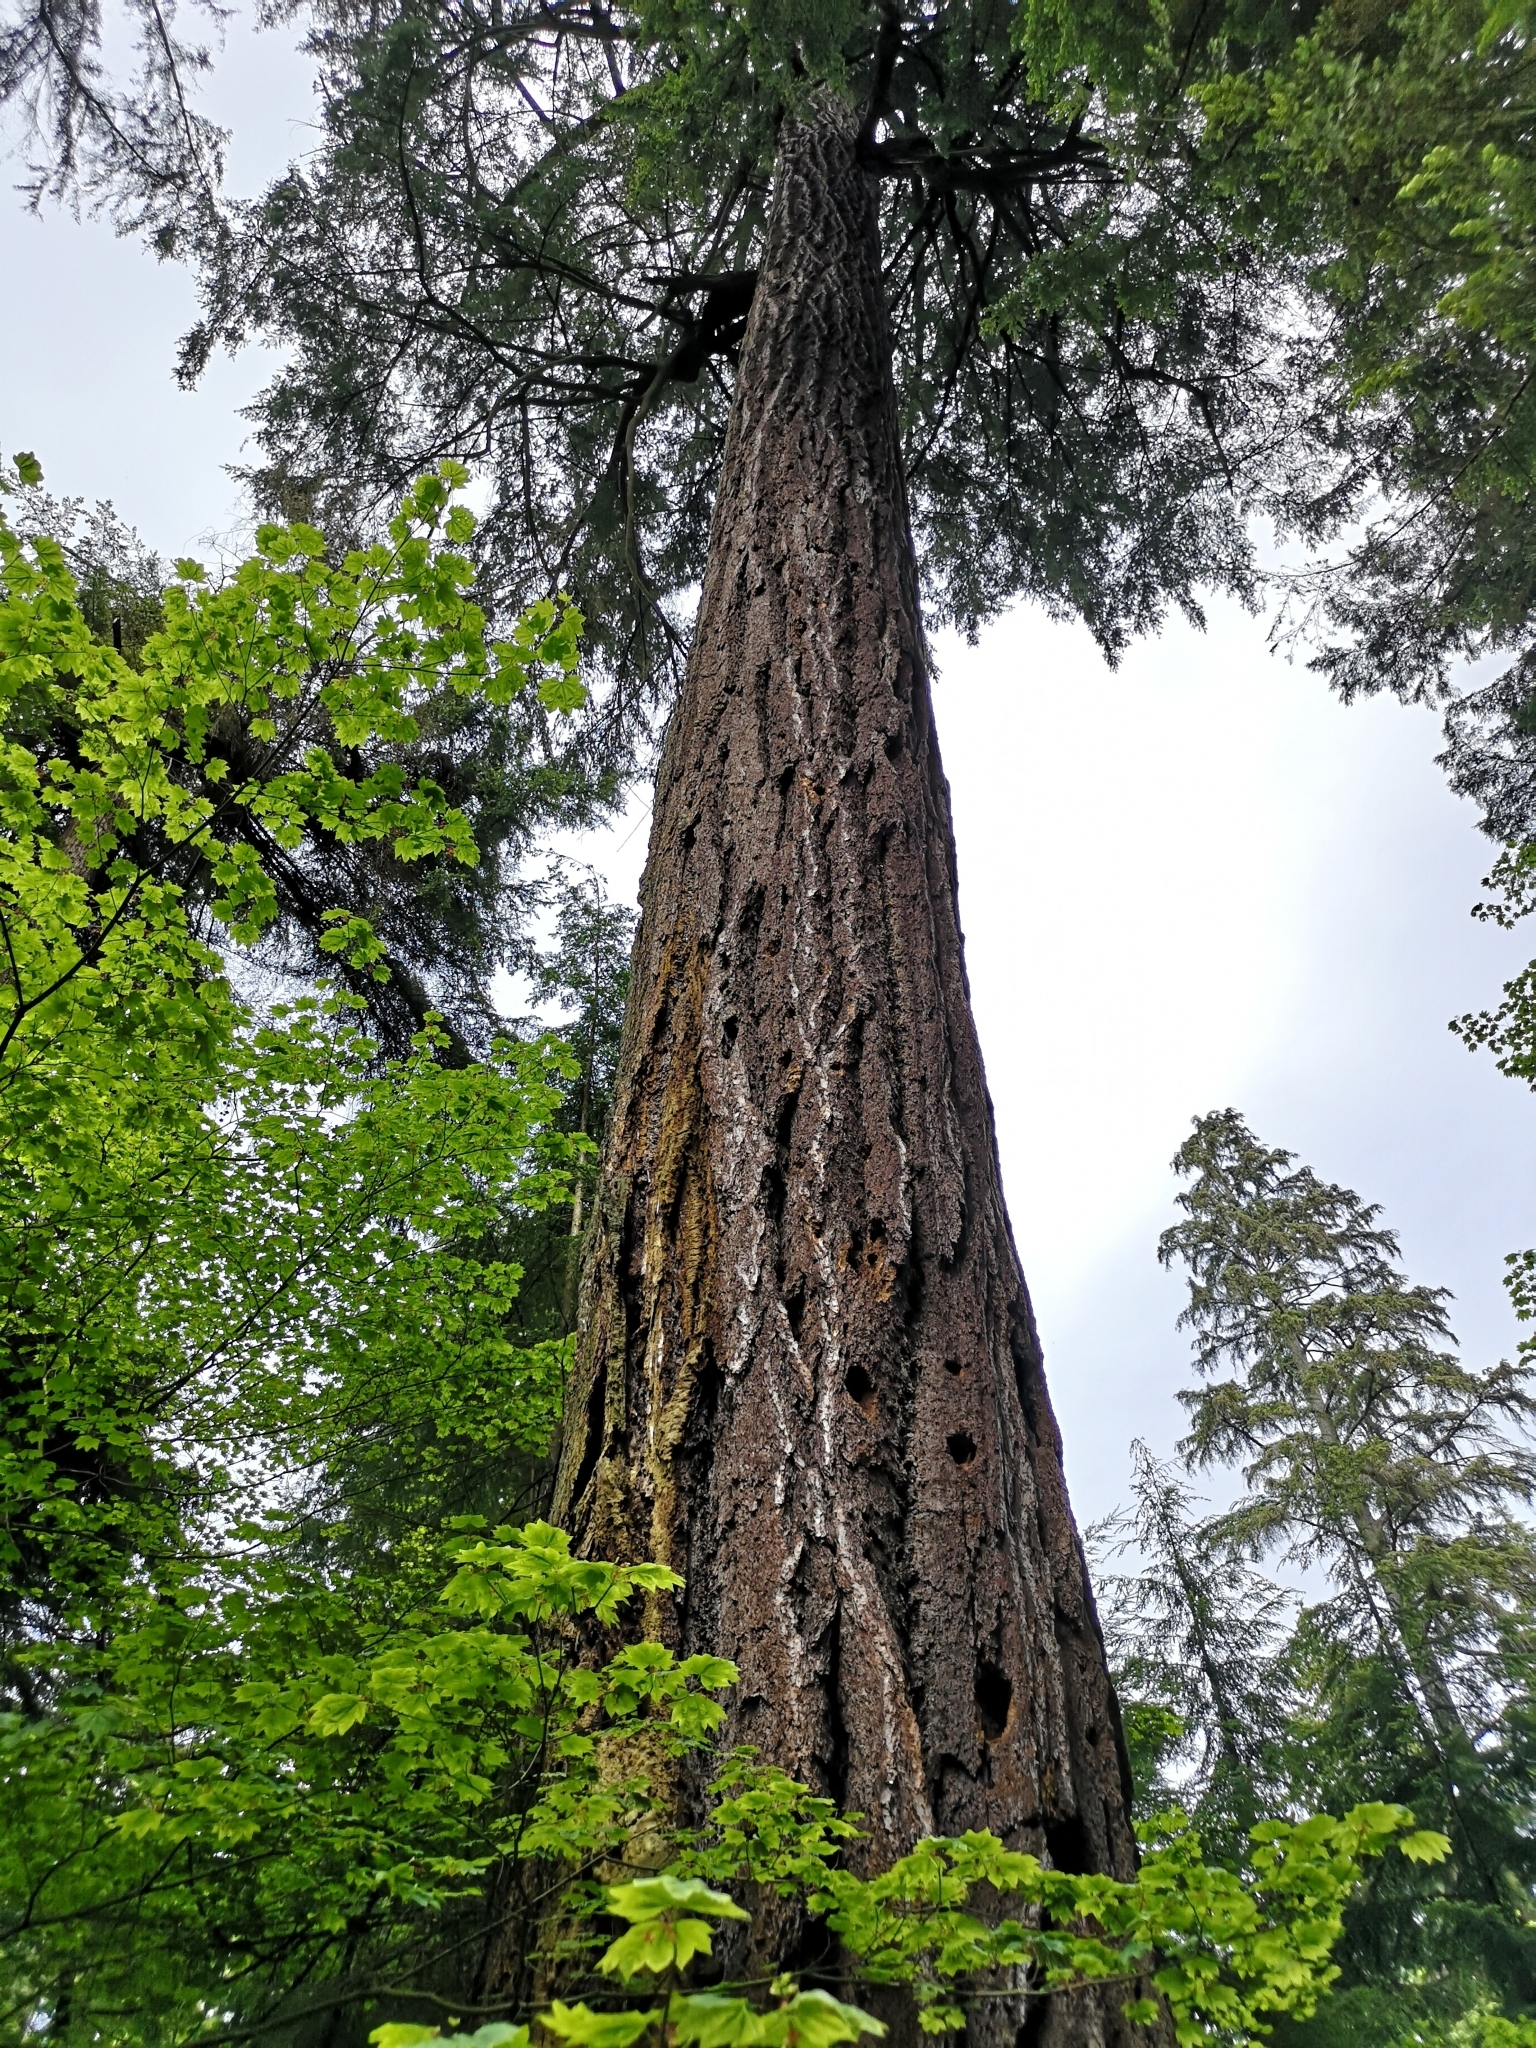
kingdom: Plantae
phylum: Tracheophyta
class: Pinopsida
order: Pinales
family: Pinaceae
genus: Pseudotsuga
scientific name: Pseudotsuga menziesii
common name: Douglas fir
